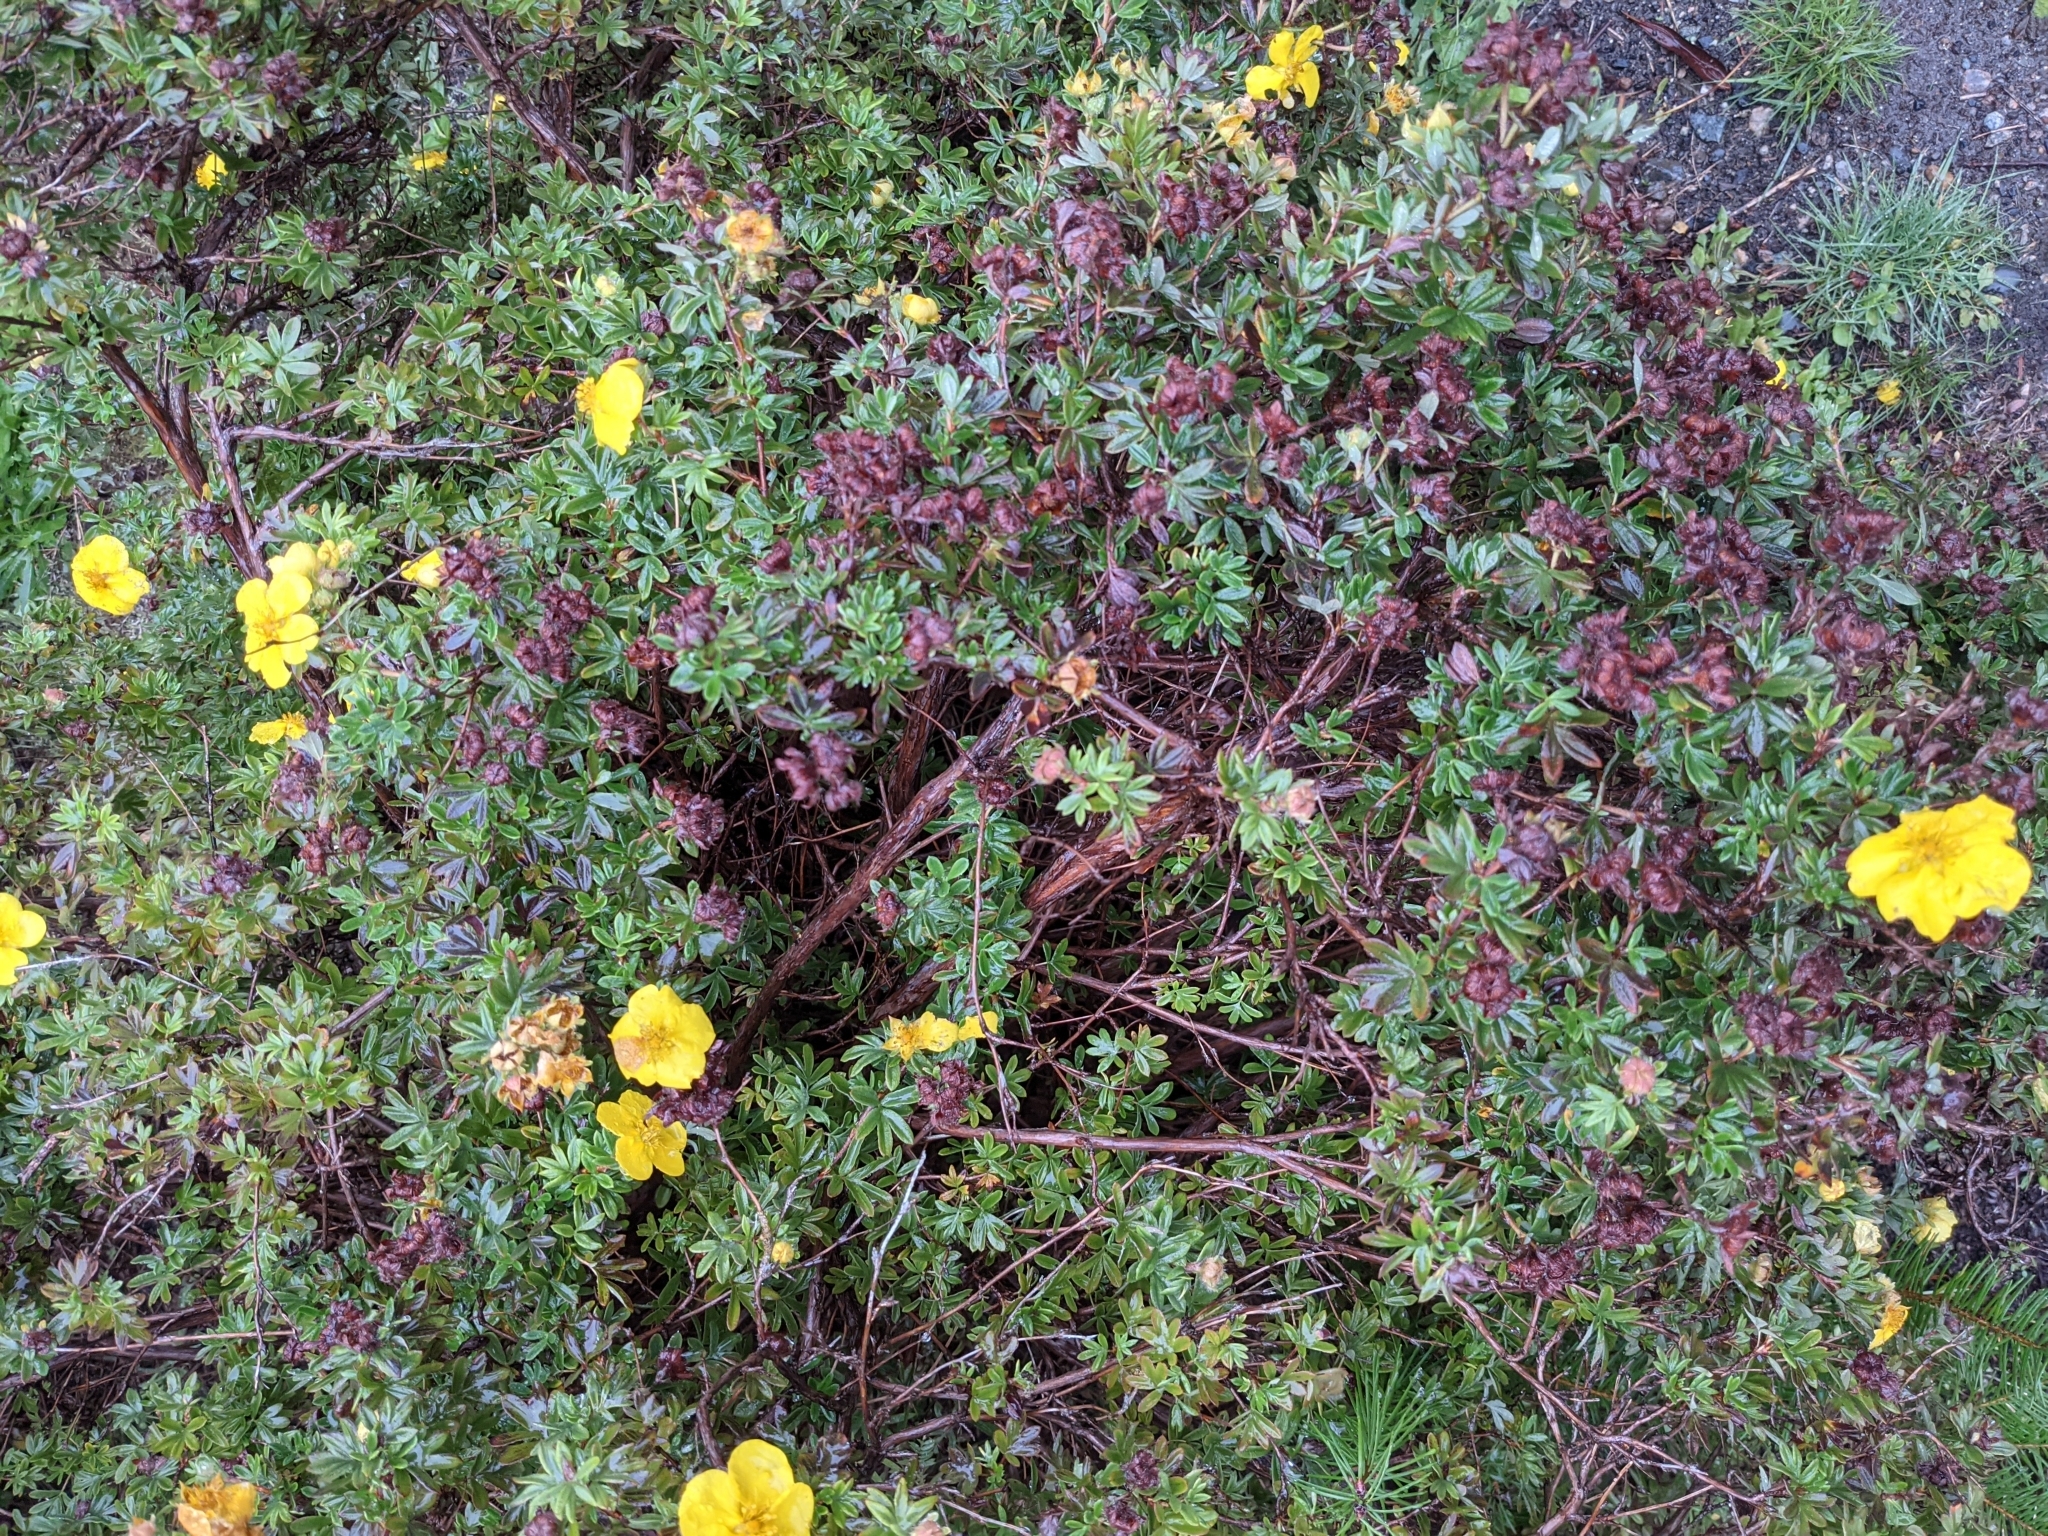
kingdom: Plantae
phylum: Tracheophyta
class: Magnoliopsida
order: Rosales
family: Rosaceae
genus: Dasiphora
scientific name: Dasiphora fruticosa
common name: Shrubby cinquefoil
